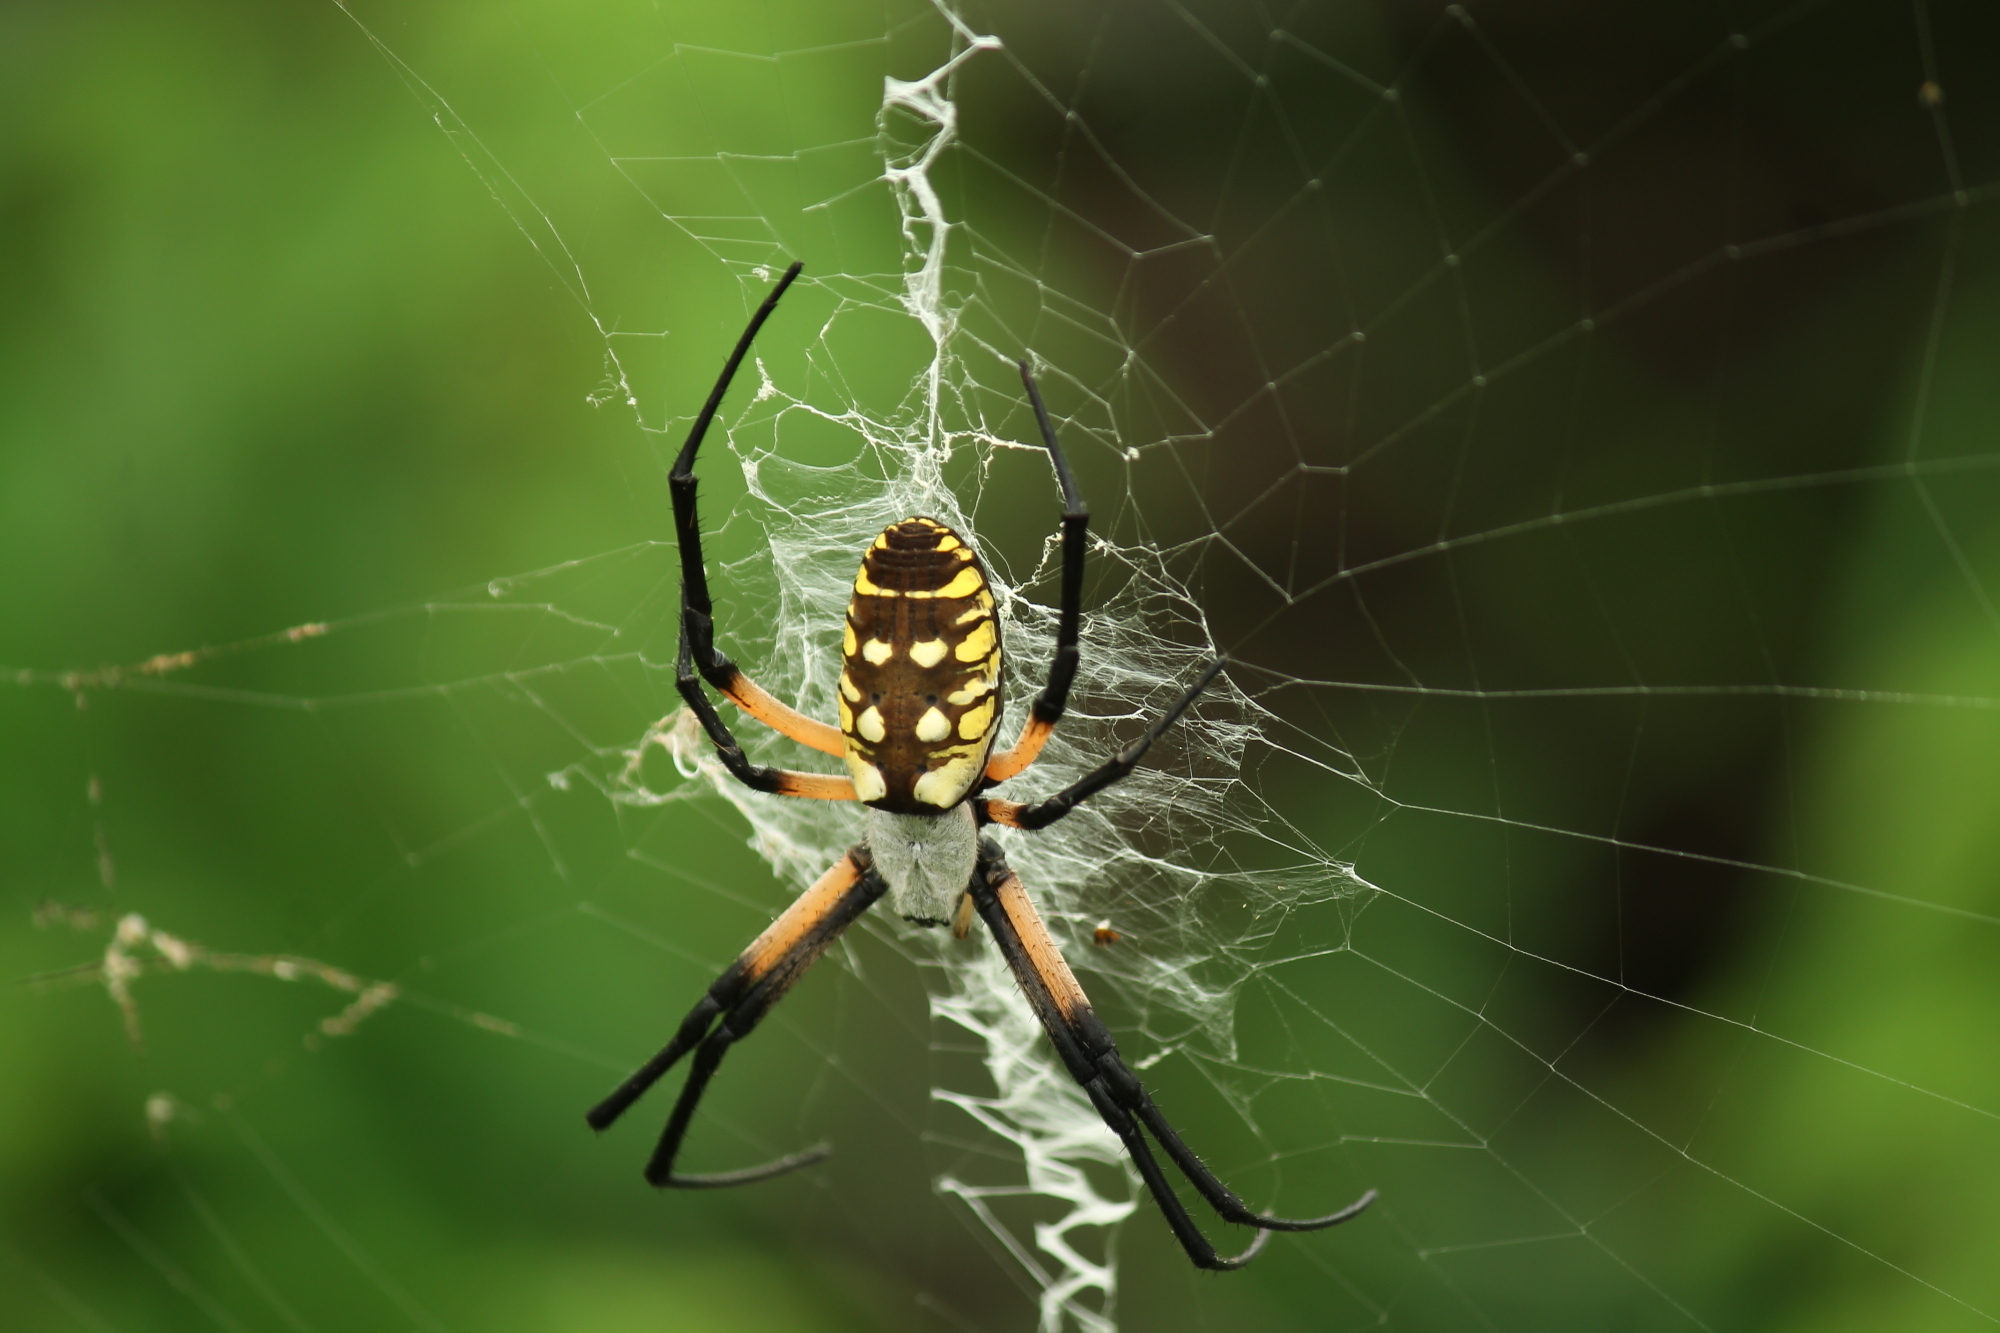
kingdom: Animalia
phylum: Arthropoda
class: Arachnida
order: Araneae
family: Araneidae
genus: Argiope
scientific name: Argiope aurantia
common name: Orb weavers
